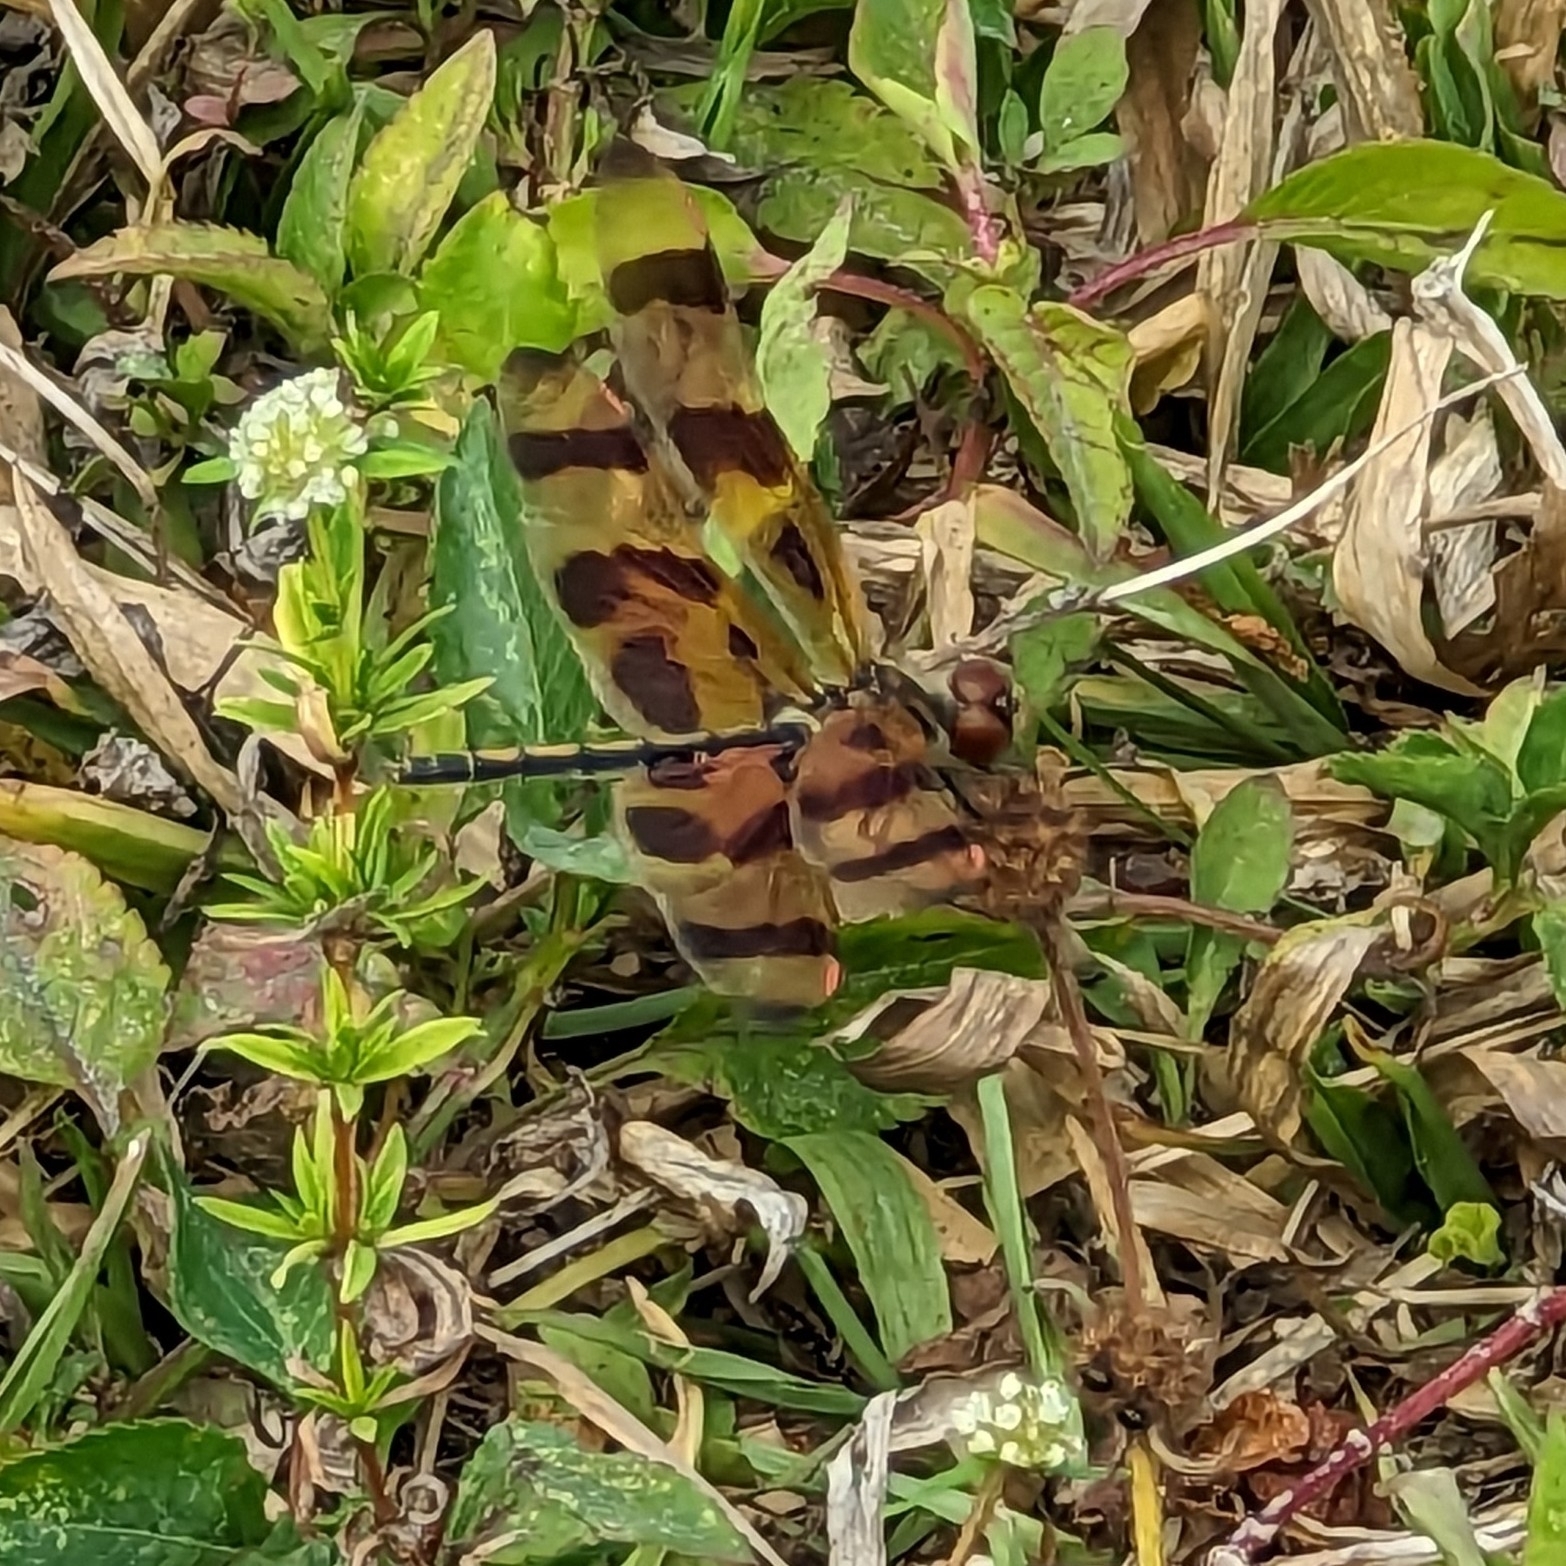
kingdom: Animalia
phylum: Arthropoda
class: Insecta
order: Odonata
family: Libellulidae
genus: Celithemis
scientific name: Celithemis eponina
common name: Halloween pennant
